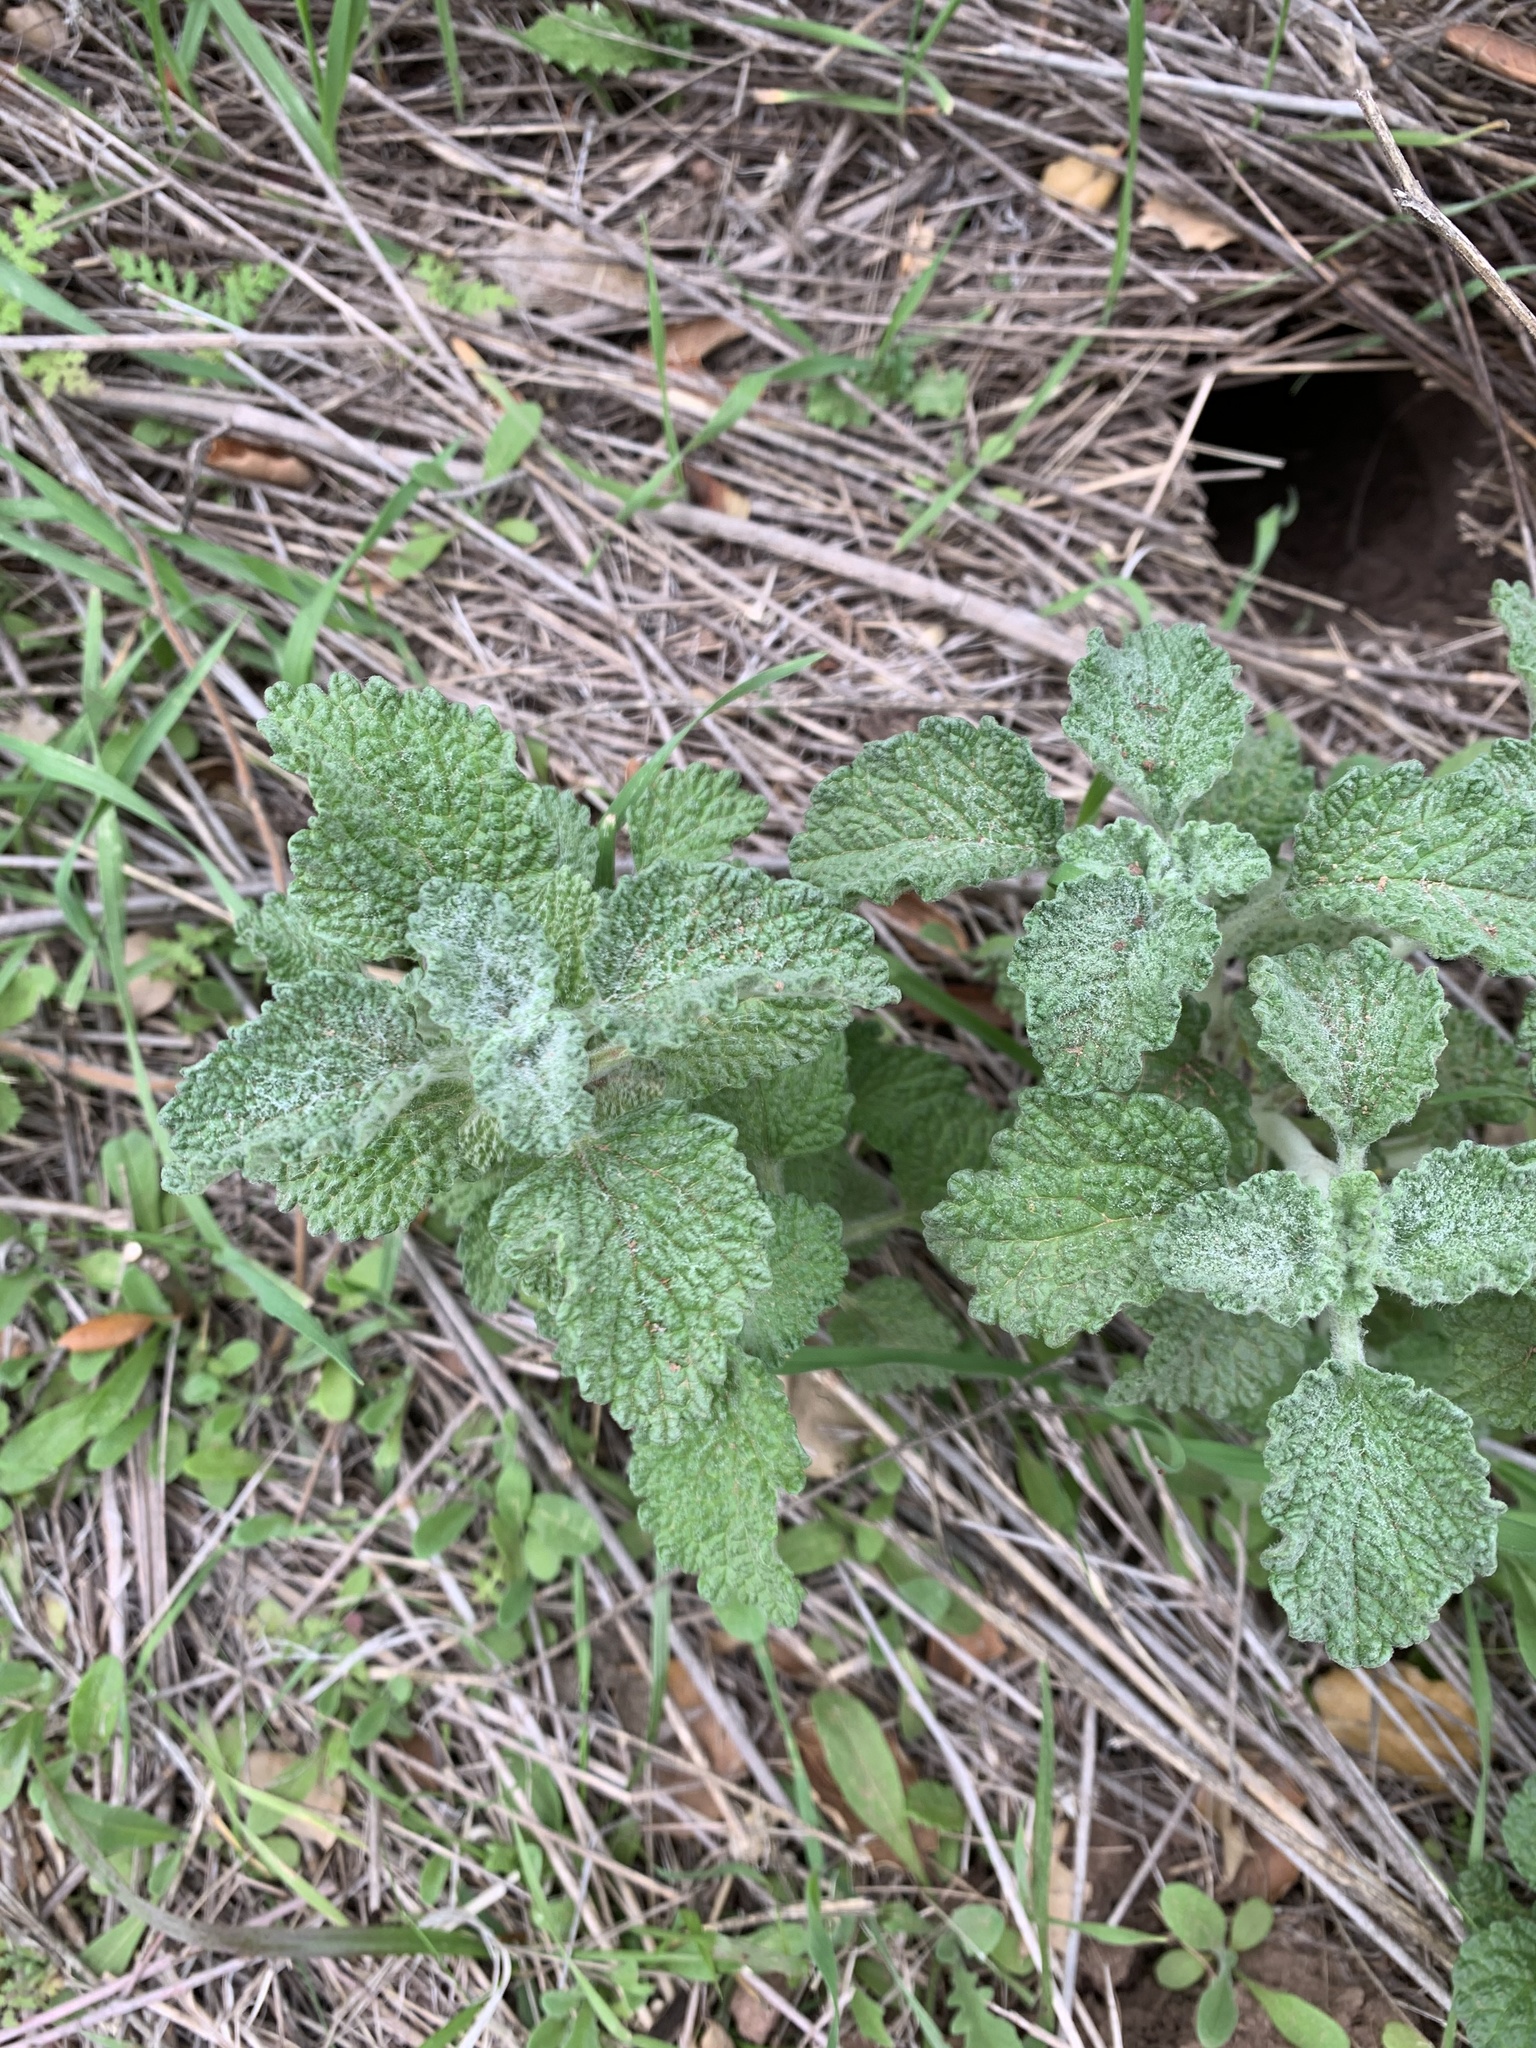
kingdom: Plantae
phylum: Tracheophyta
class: Magnoliopsida
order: Lamiales
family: Lamiaceae
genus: Marrubium
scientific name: Marrubium vulgare
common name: Horehound
